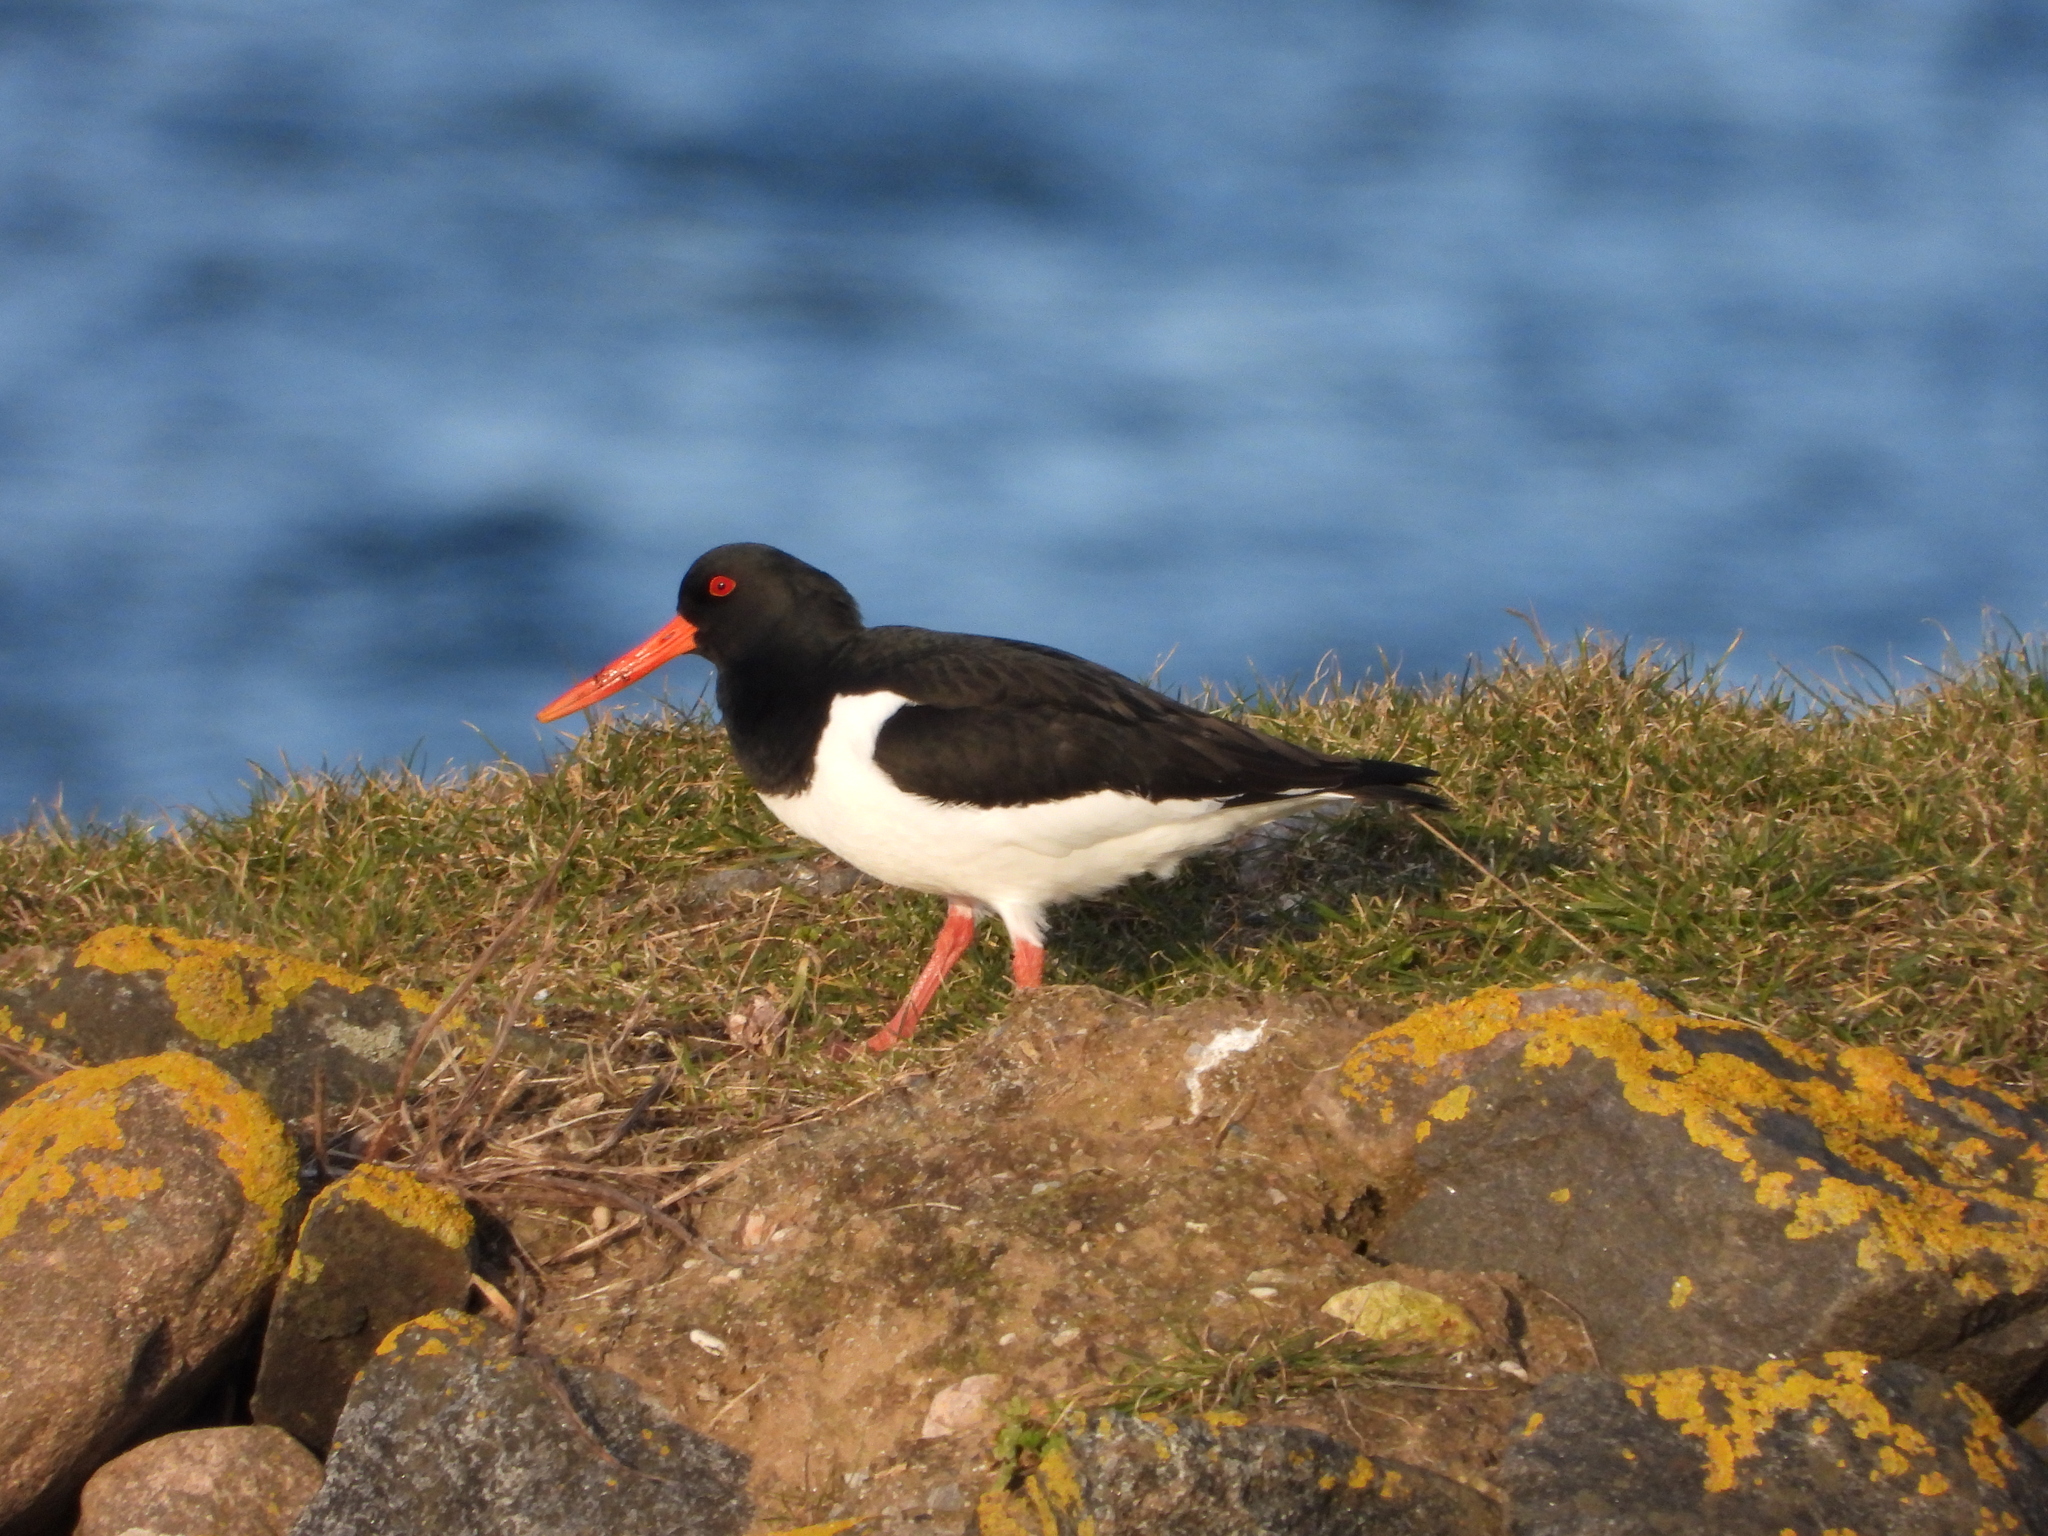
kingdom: Animalia
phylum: Chordata
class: Aves
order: Charadriiformes
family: Haematopodidae
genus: Haematopus
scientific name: Haematopus ostralegus
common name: Eurasian oystercatcher
